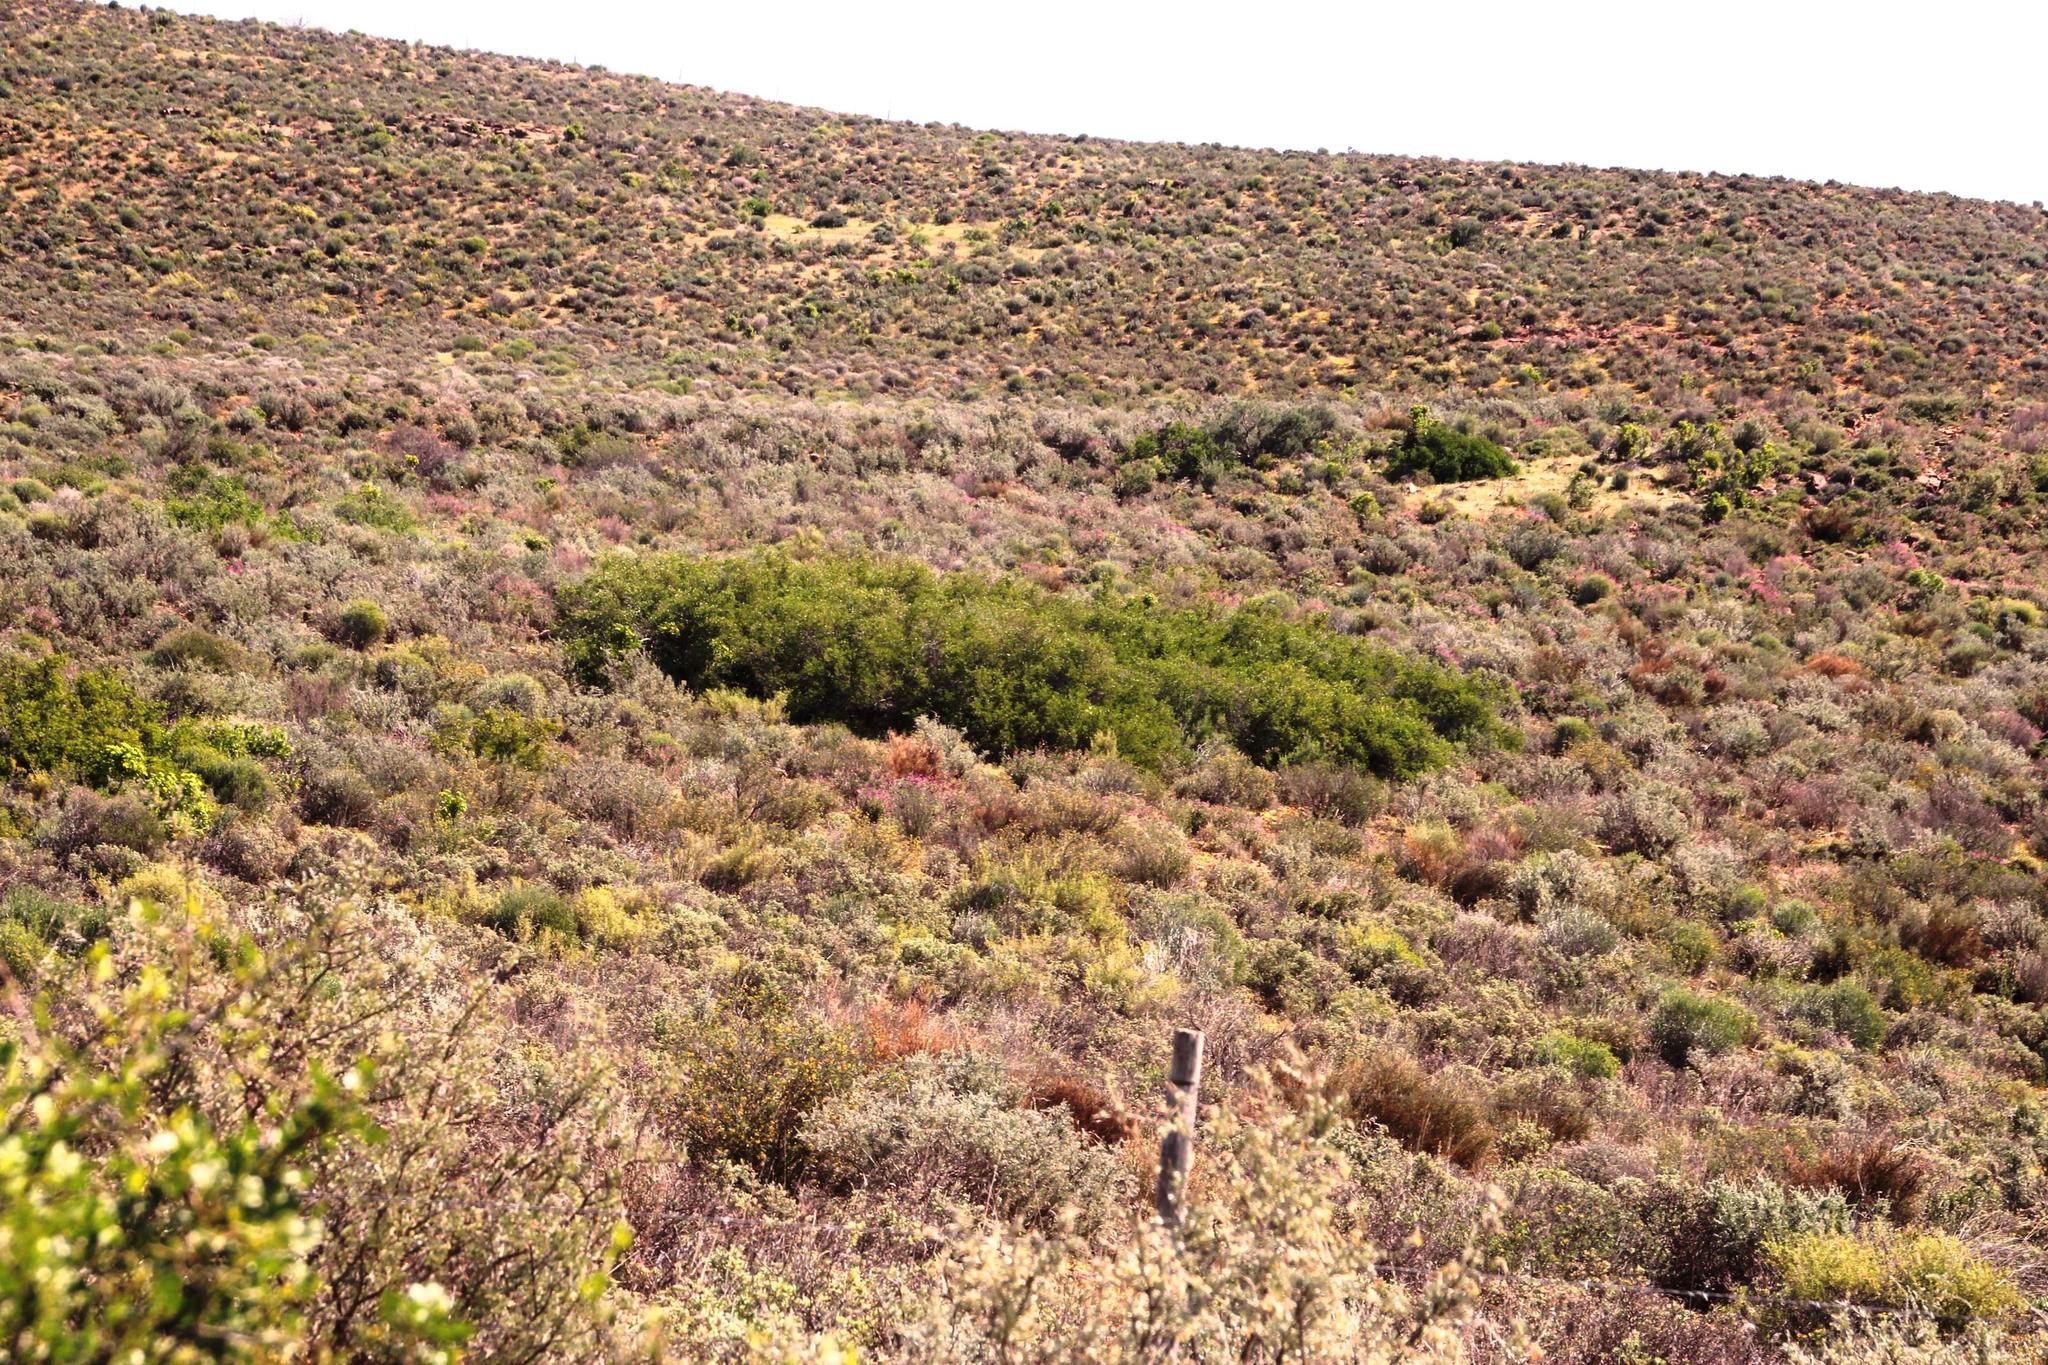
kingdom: Plantae
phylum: Tracheophyta
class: Magnoliopsida
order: Solanales
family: Montiniaceae
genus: Montinia
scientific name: Montinia caryophyllacea
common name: Wild clove-bush
